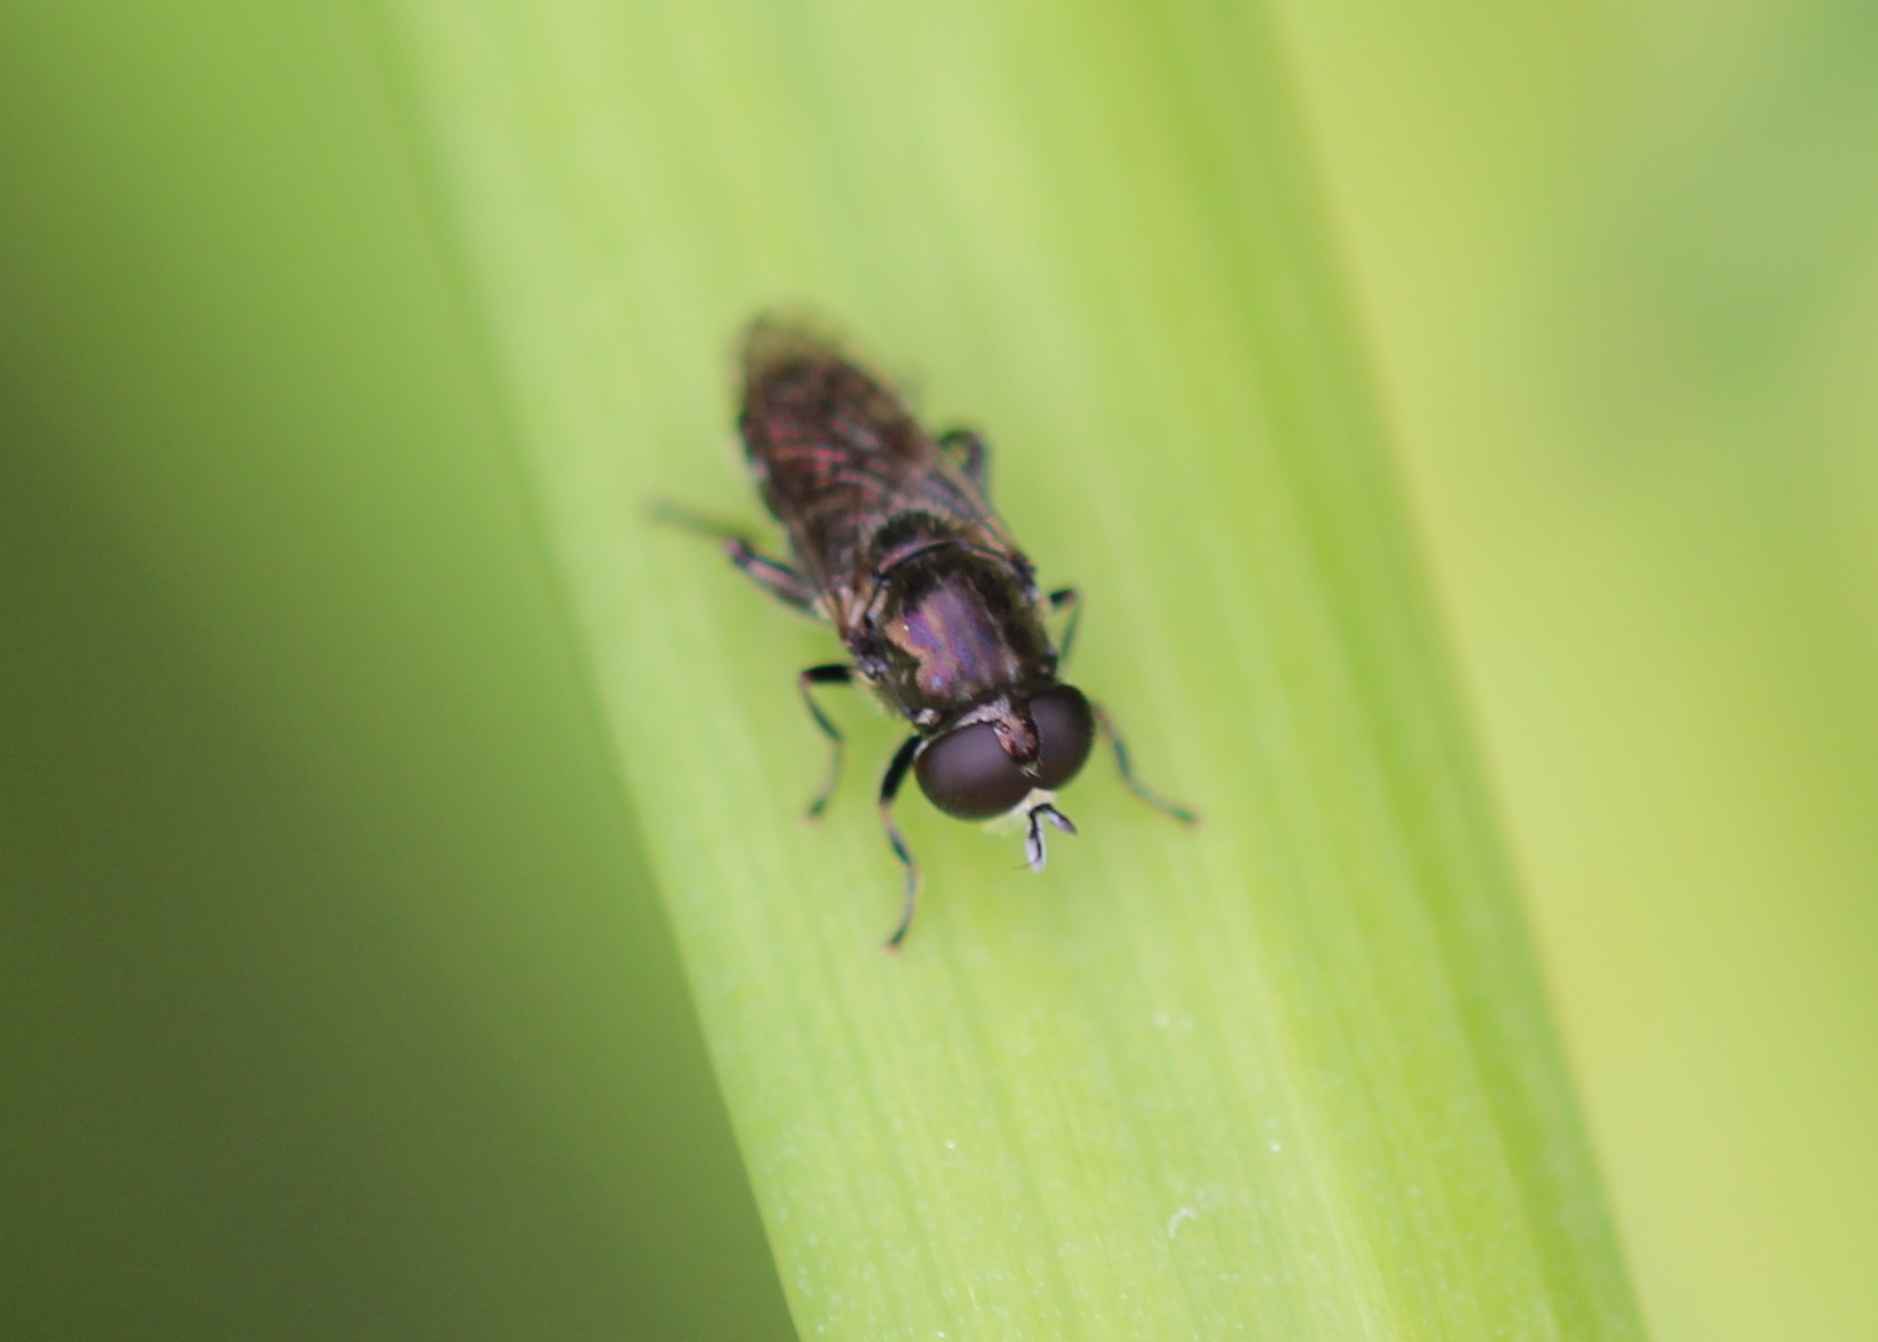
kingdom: Animalia
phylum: Arthropoda
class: Insecta
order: Diptera
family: Syrphidae
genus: Eumerus
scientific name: Eumerus
